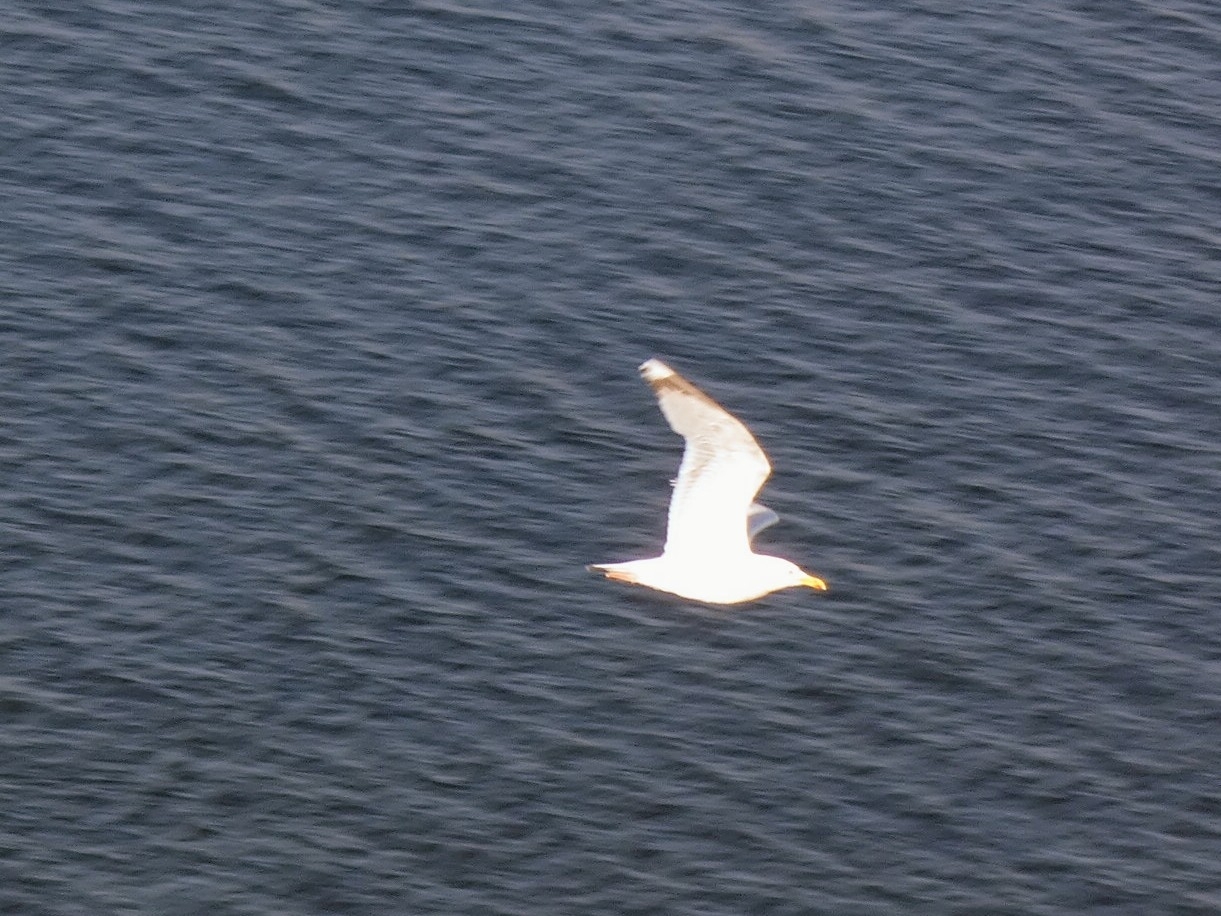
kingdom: Animalia
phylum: Chordata
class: Aves
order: Charadriiformes
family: Laridae
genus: Larus
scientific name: Larus argentatus
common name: Herring gull
